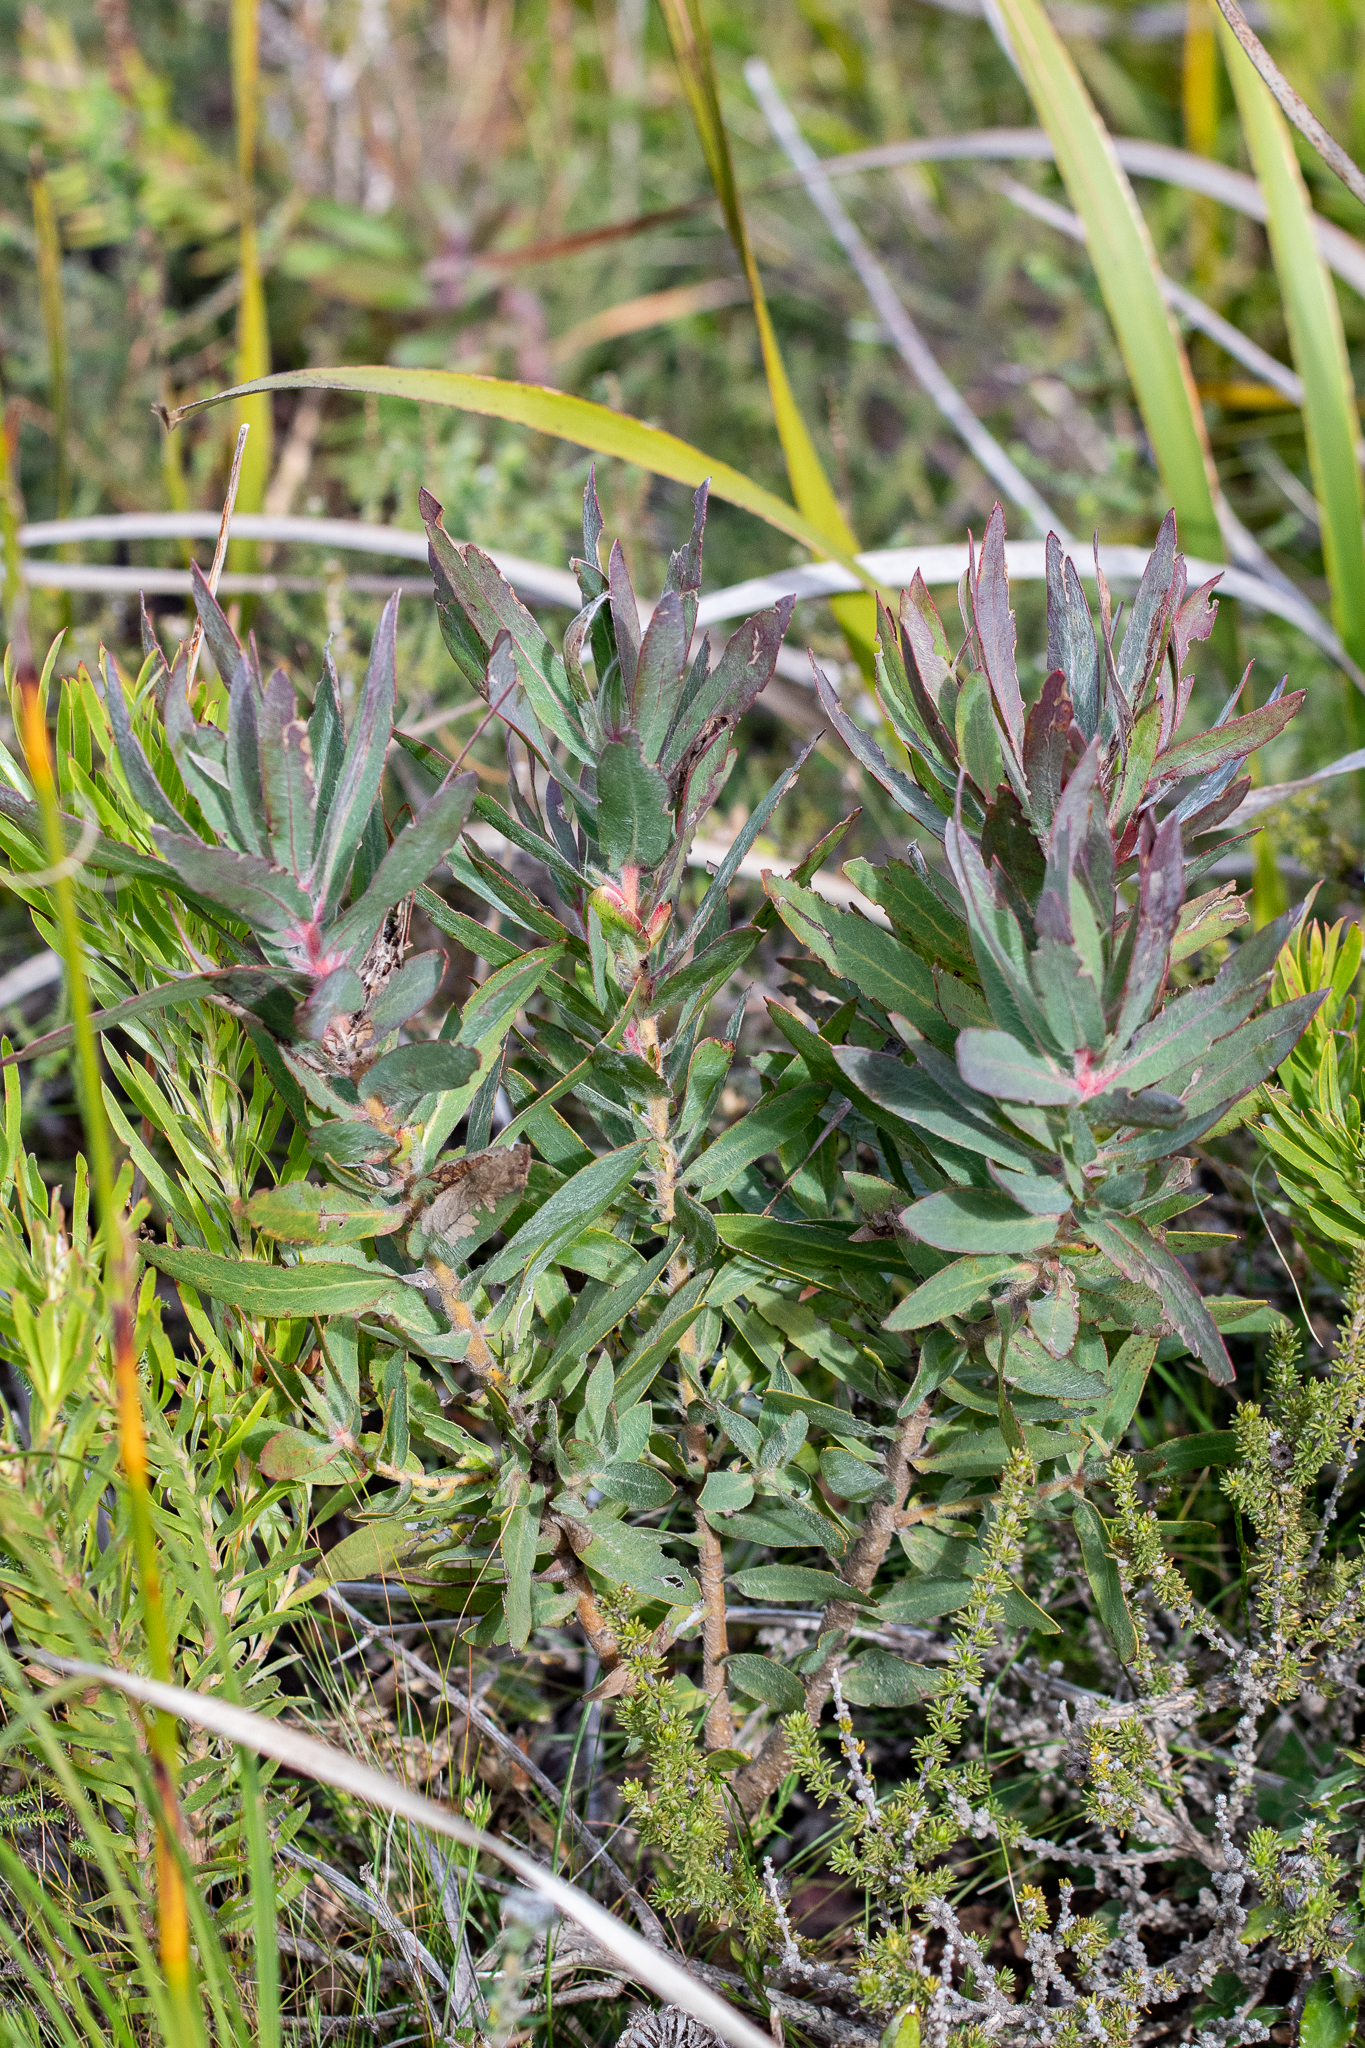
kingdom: Plantae
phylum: Tracheophyta
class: Magnoliopsida
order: Proteales
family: Proteaceae
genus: Protea
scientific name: Protea coronata
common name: Green sugarbush
